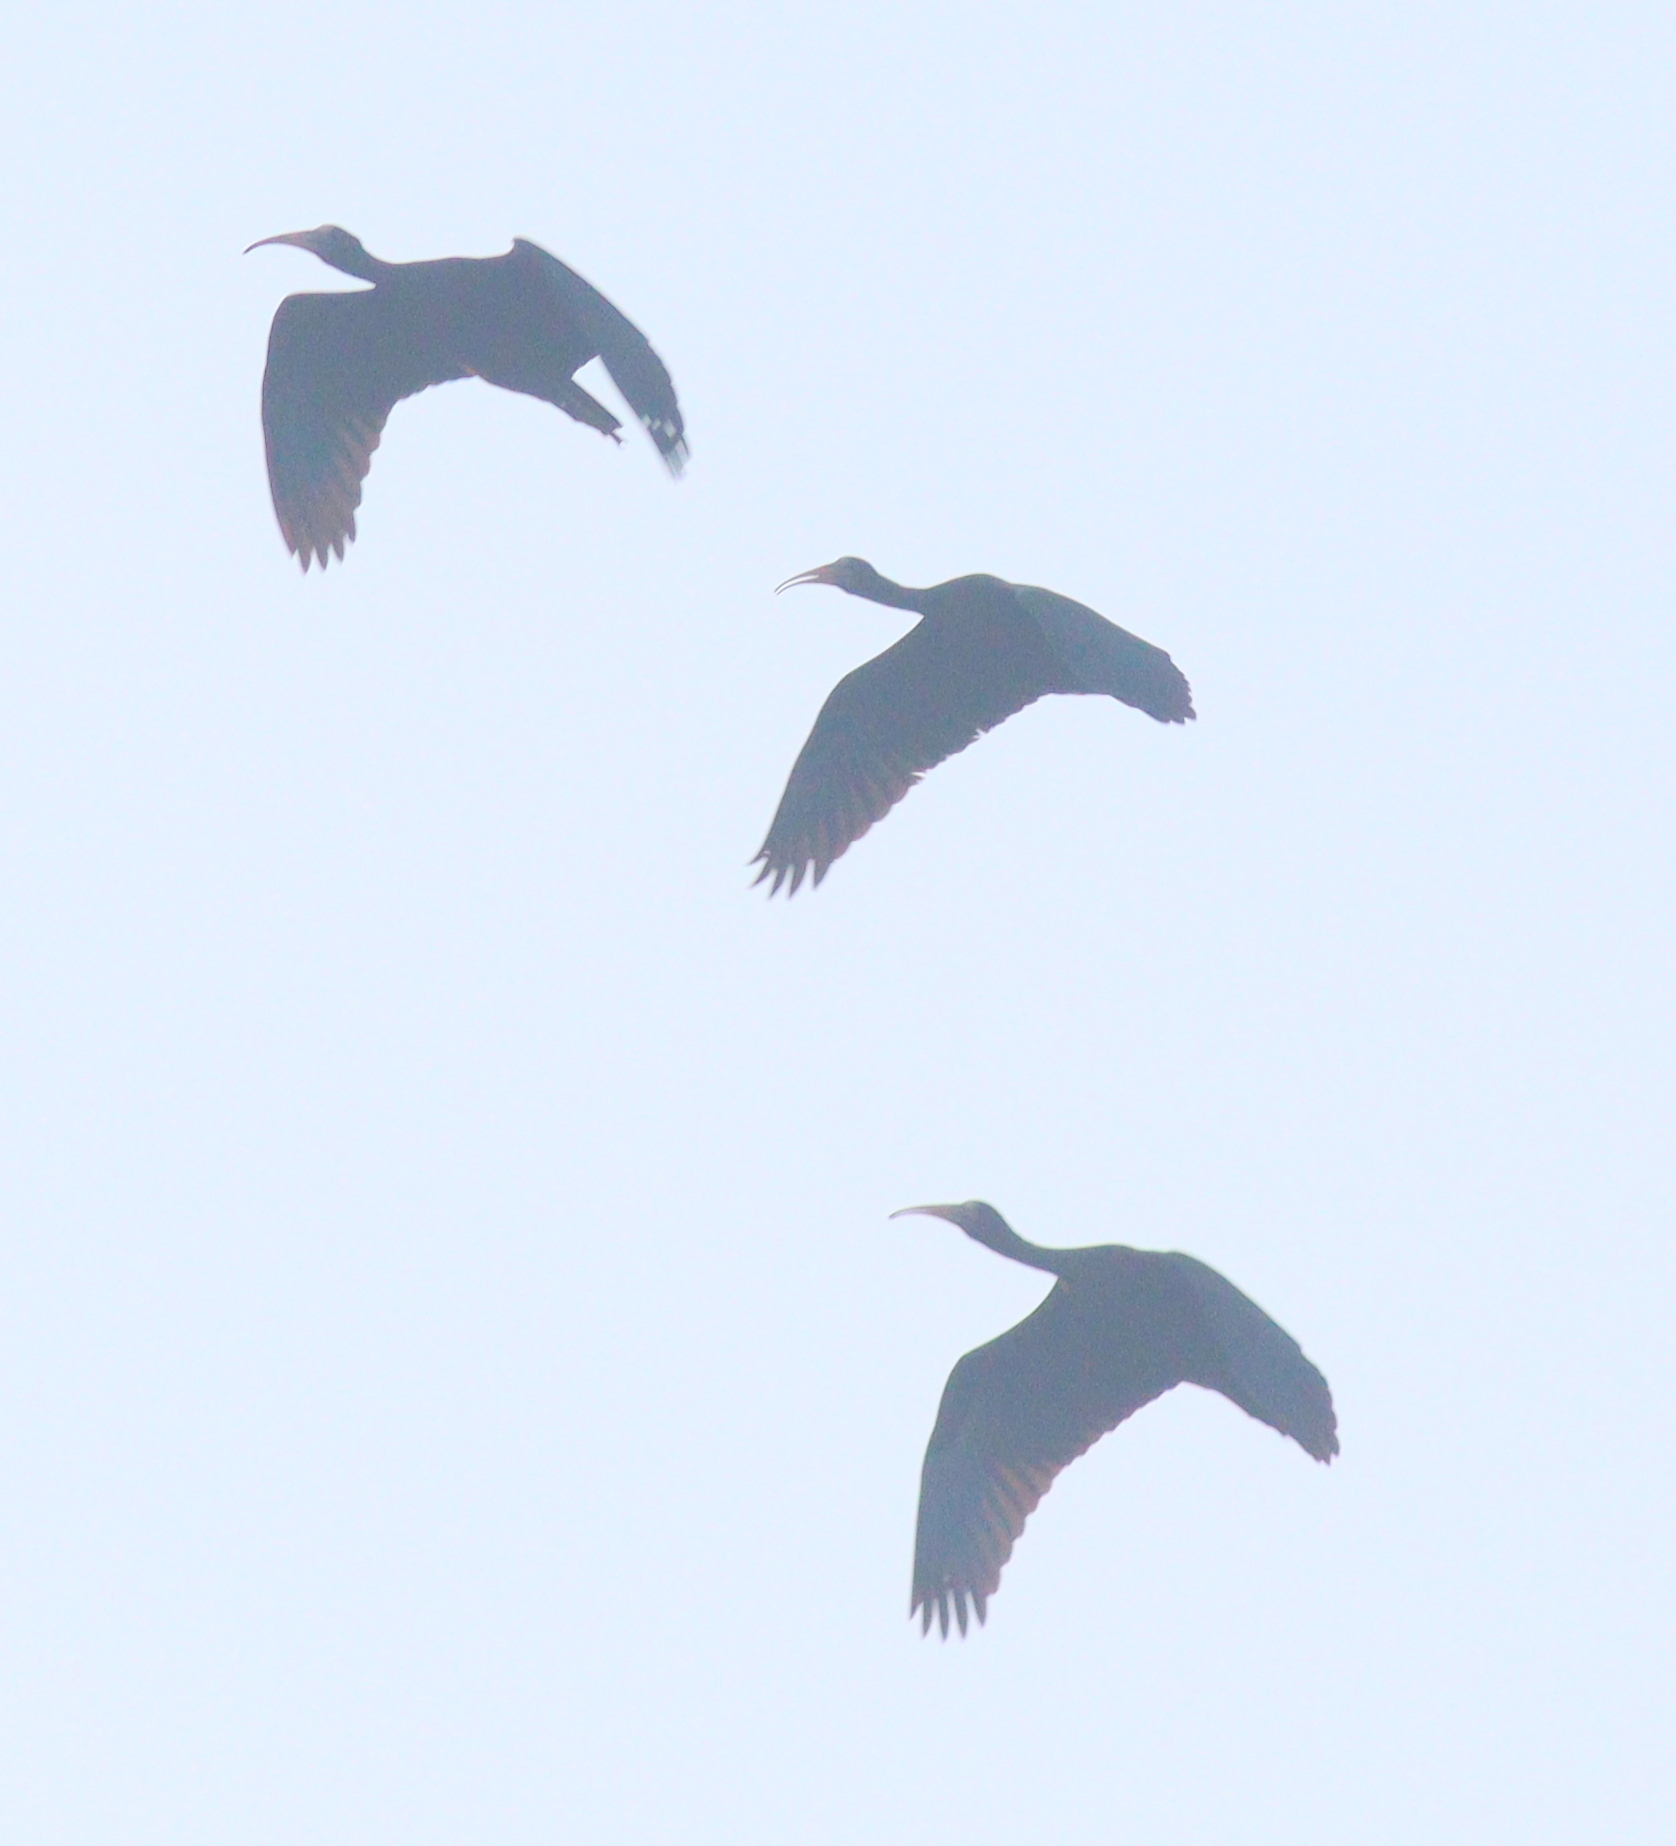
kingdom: Animalia
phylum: Chordata
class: Aves
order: Pelecaniformes
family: Threskiornithidae
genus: Phimosus
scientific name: Phimosus infuscatus
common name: Bare-faced ibis
